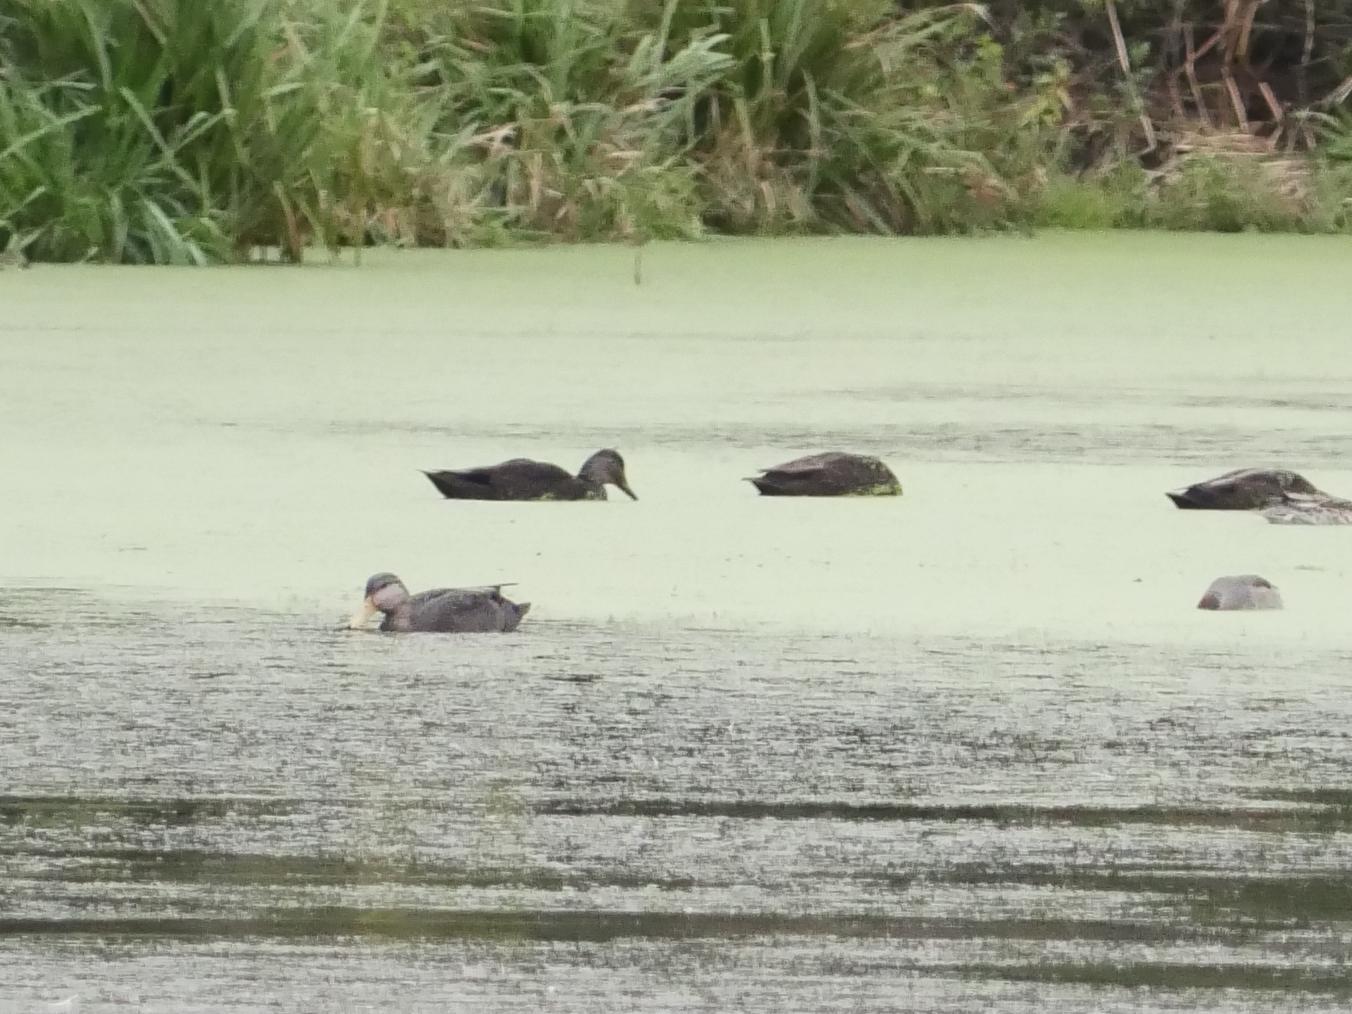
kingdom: Animalia
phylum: Chordata
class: Aves
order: Anseriformes
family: Anatidae
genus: Anas
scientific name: Anas rubripes
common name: American black duck
